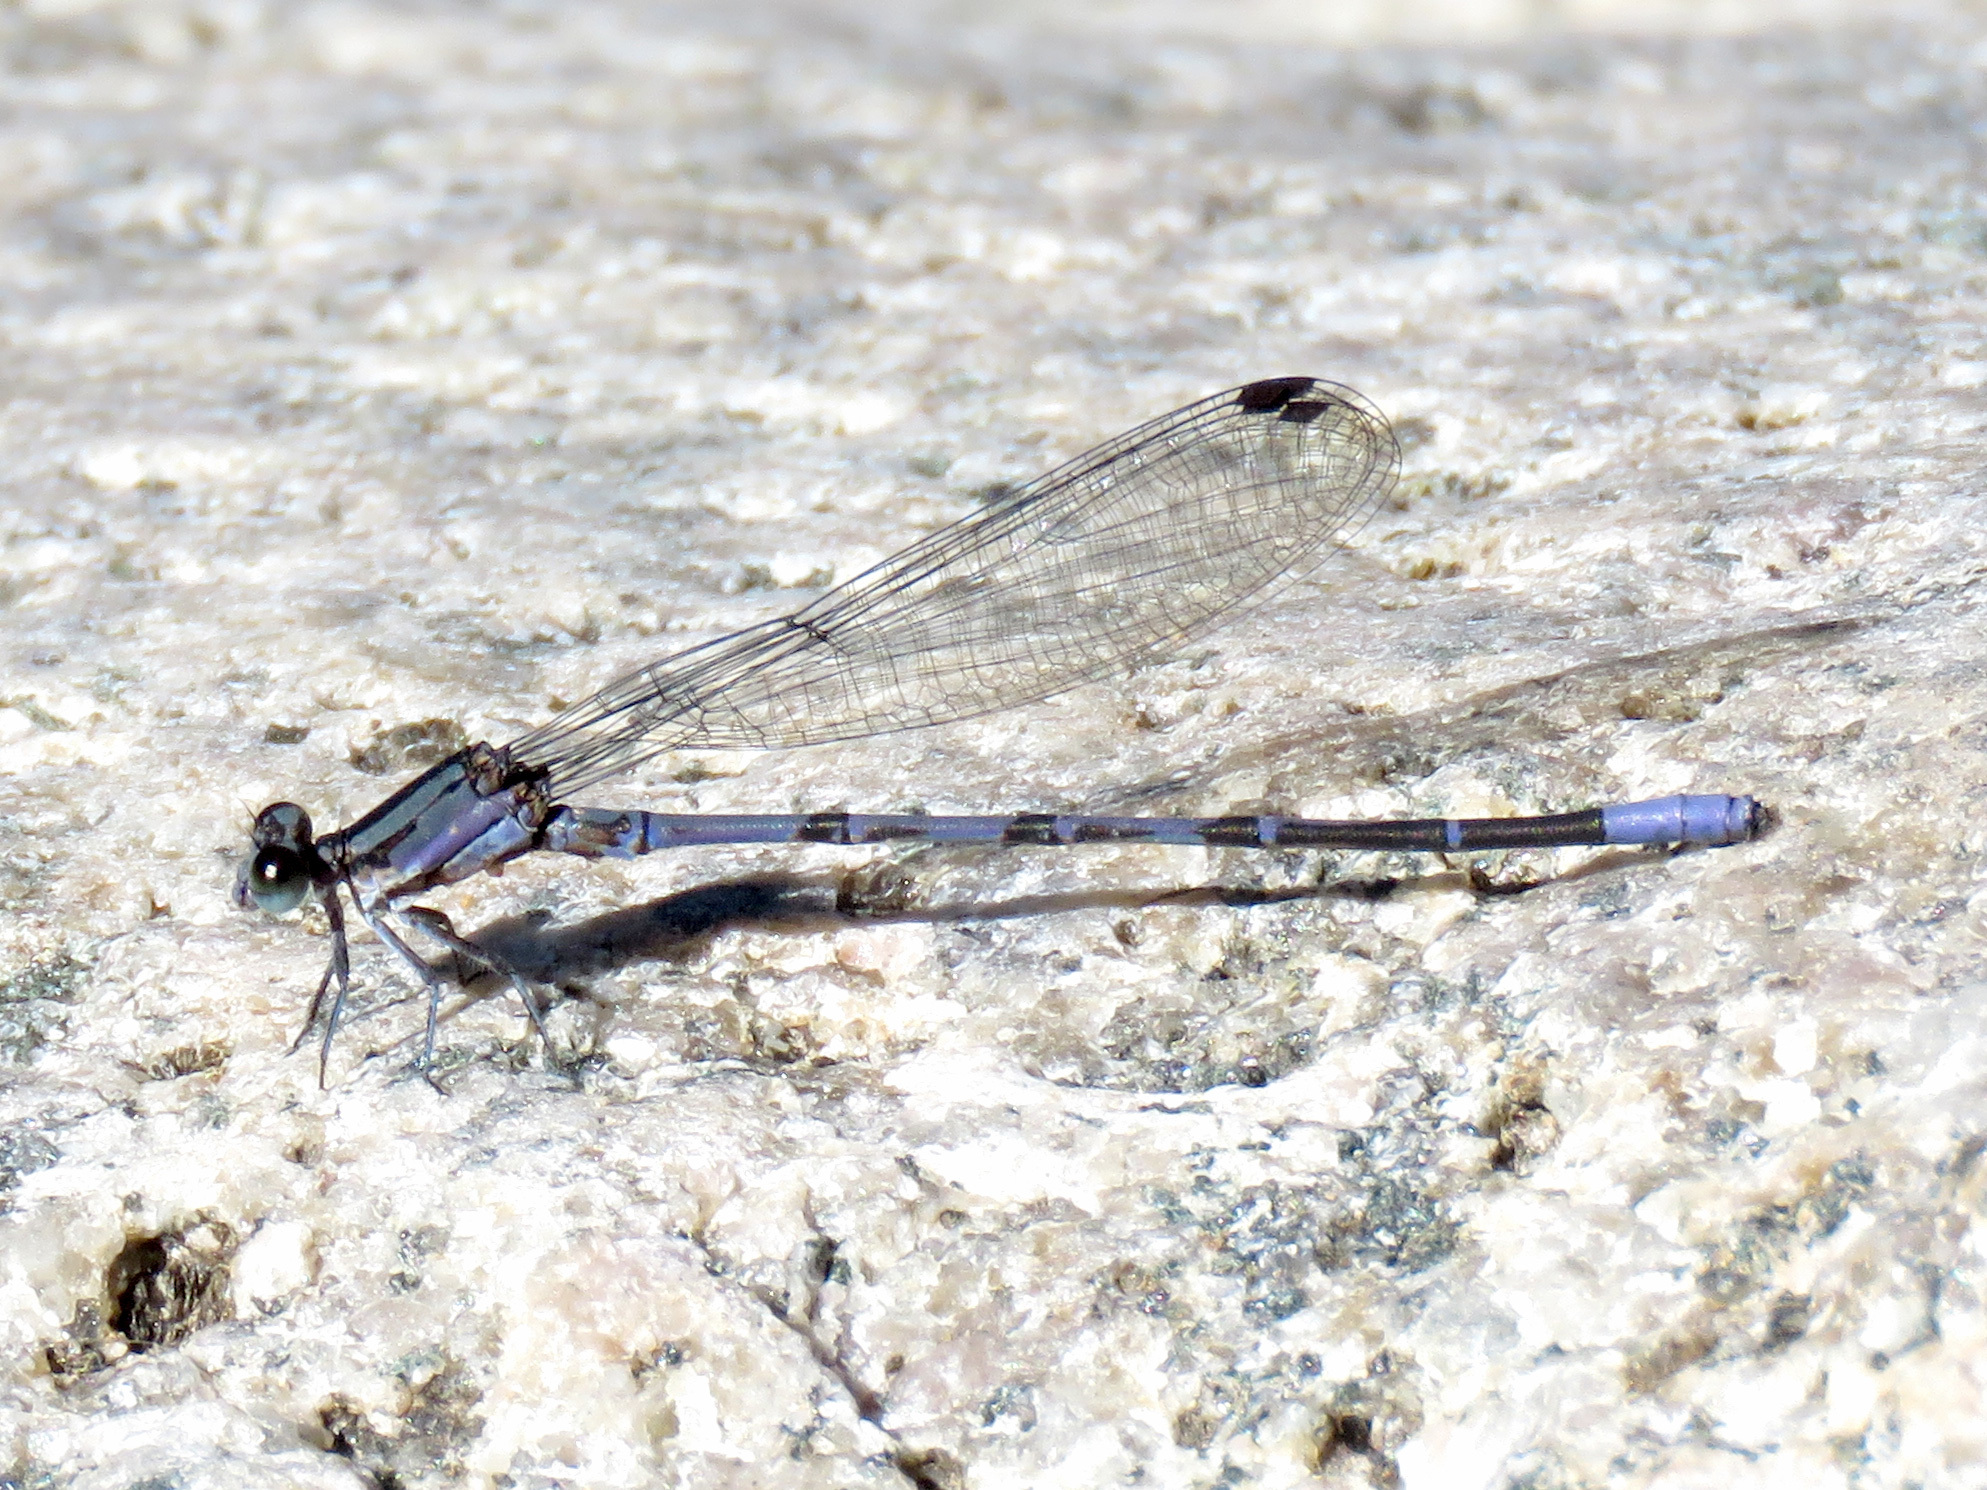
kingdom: Animalia
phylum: Arthropoda
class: Insecta
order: Odonata
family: Coenagrionidae
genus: Argia
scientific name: Argia funebris
